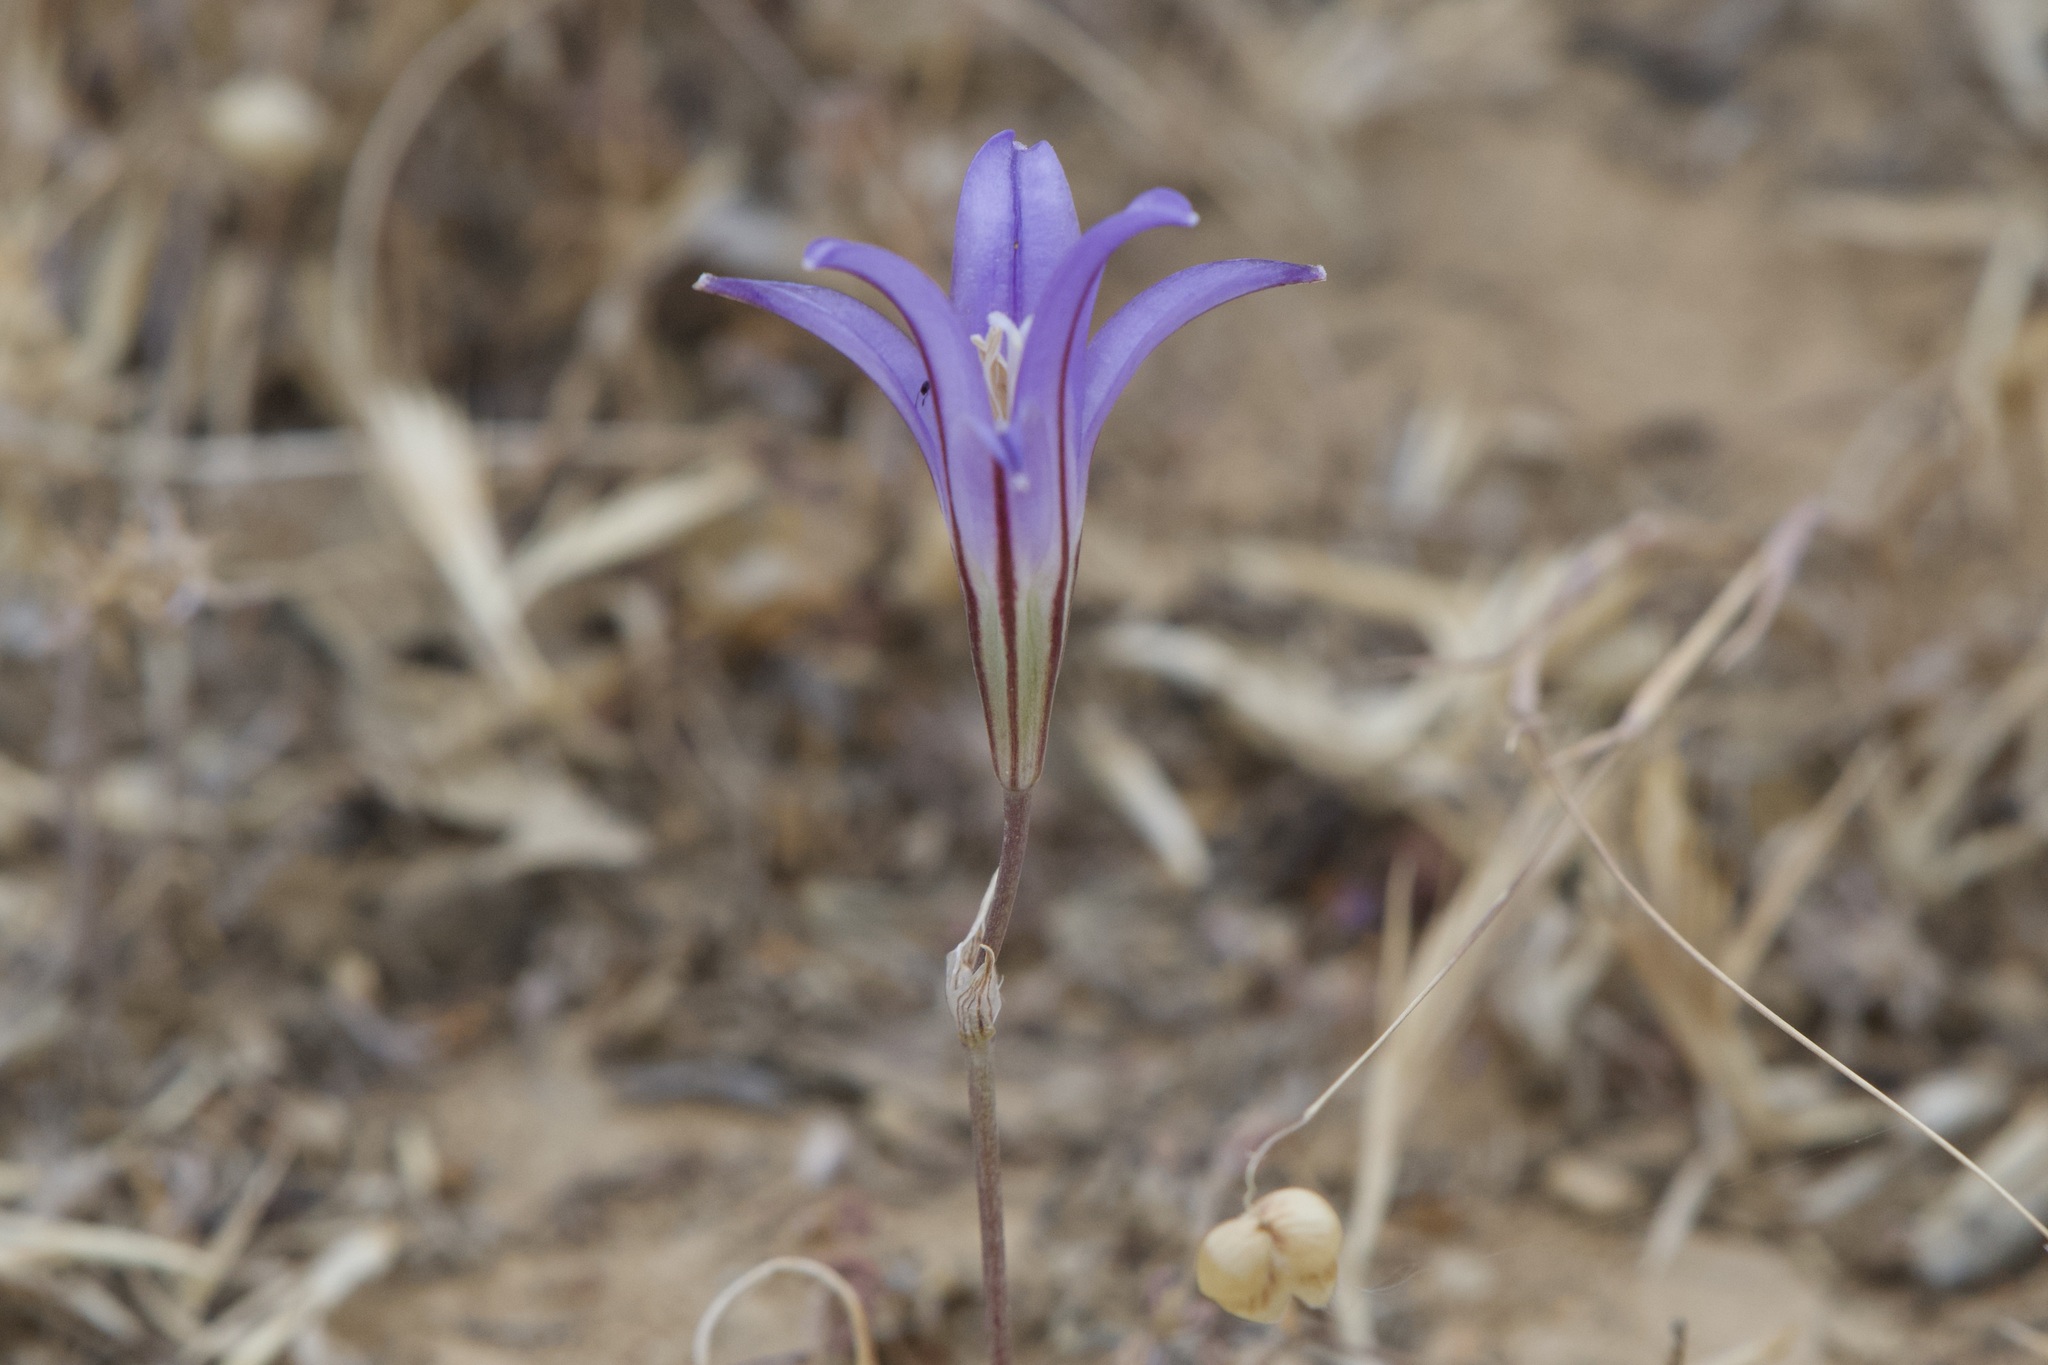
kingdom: Plantae
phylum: Tracheophyta
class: Liliopsida
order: Asparagales
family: Asparagaceae
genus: Brodiaea
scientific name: Brodiaea elegans
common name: Elegant cluster-lily
